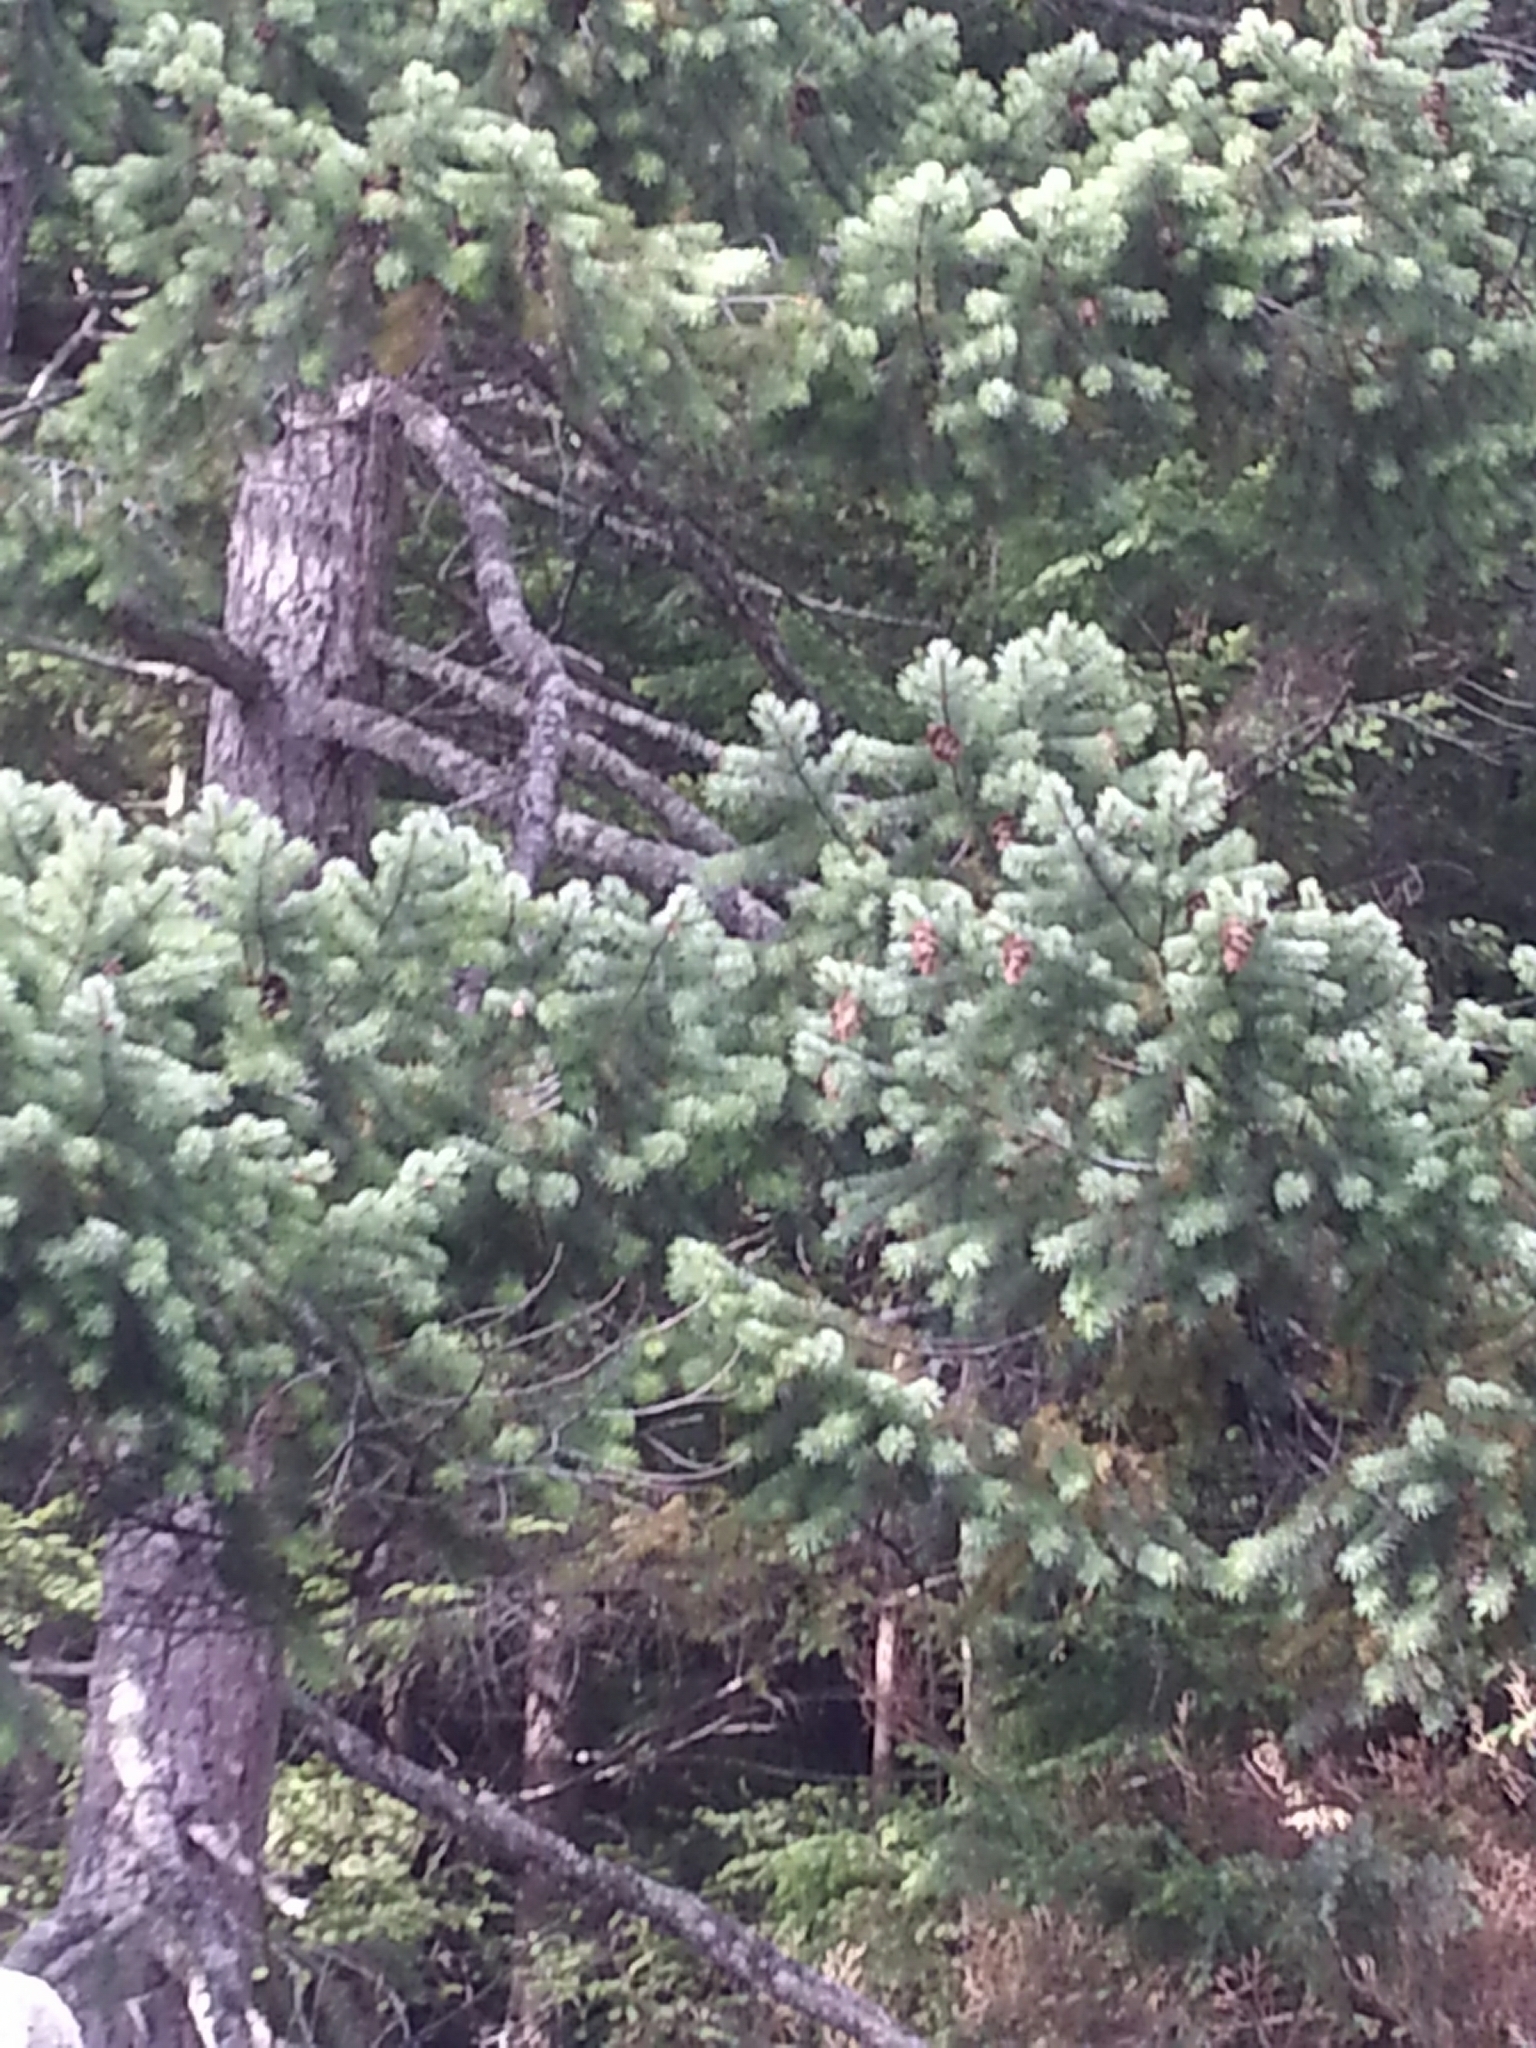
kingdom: Plantae
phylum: Tracheophyta
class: Pinopsida
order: Pinales
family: Pinaceae
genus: Pseudotsuga
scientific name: Pseudotsuga menziesii
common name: Douglas fir
